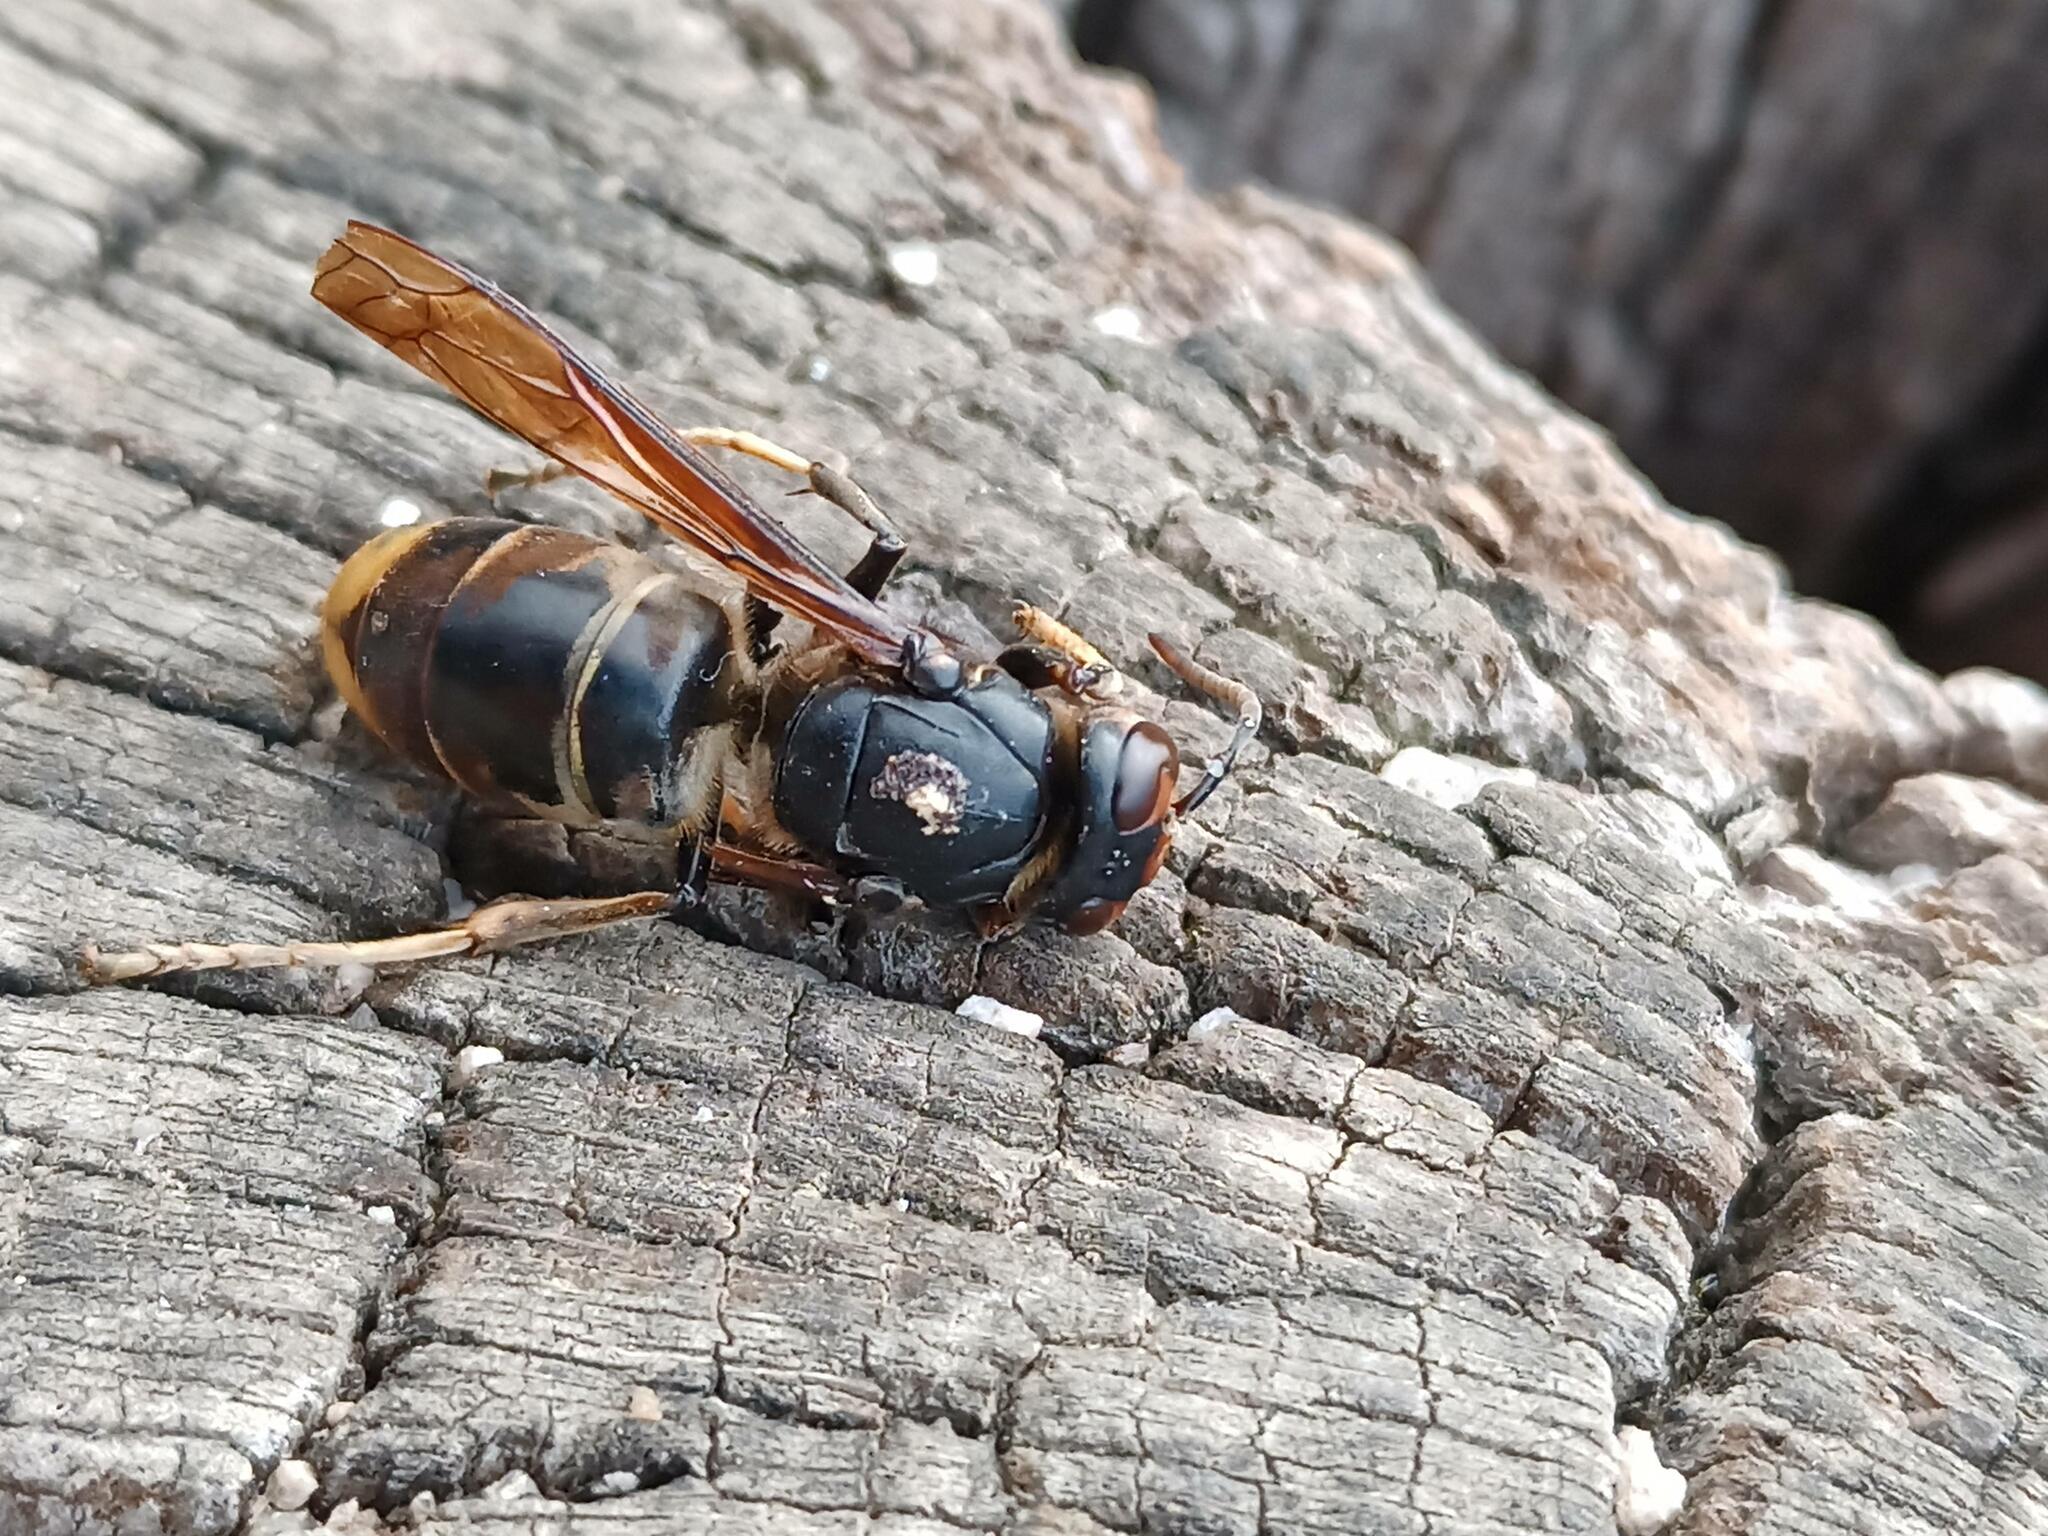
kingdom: Animalia
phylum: Arthropoda
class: Insecta
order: Hymenoptera
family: Vespidae
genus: Vespa
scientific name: Vespa velutina
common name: Asian hornet
